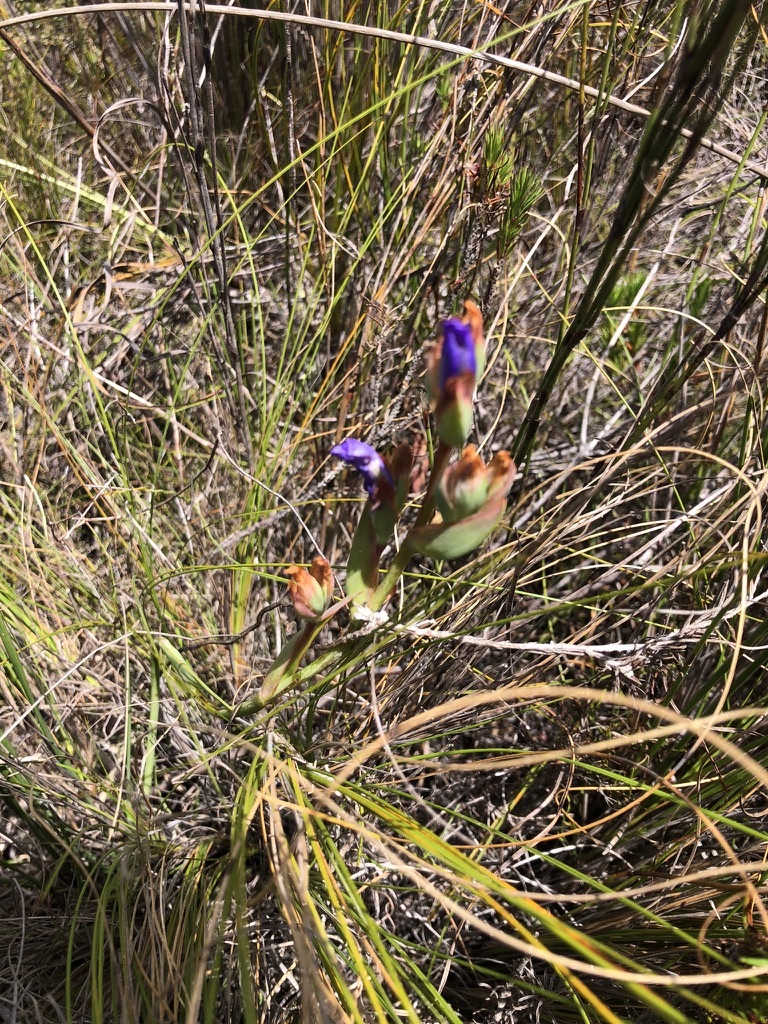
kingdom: Plantae
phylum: Tracheophyta
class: Liliopsida
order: Asparagales
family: Iridaceae
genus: Aristea
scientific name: Aristea juncifolia
